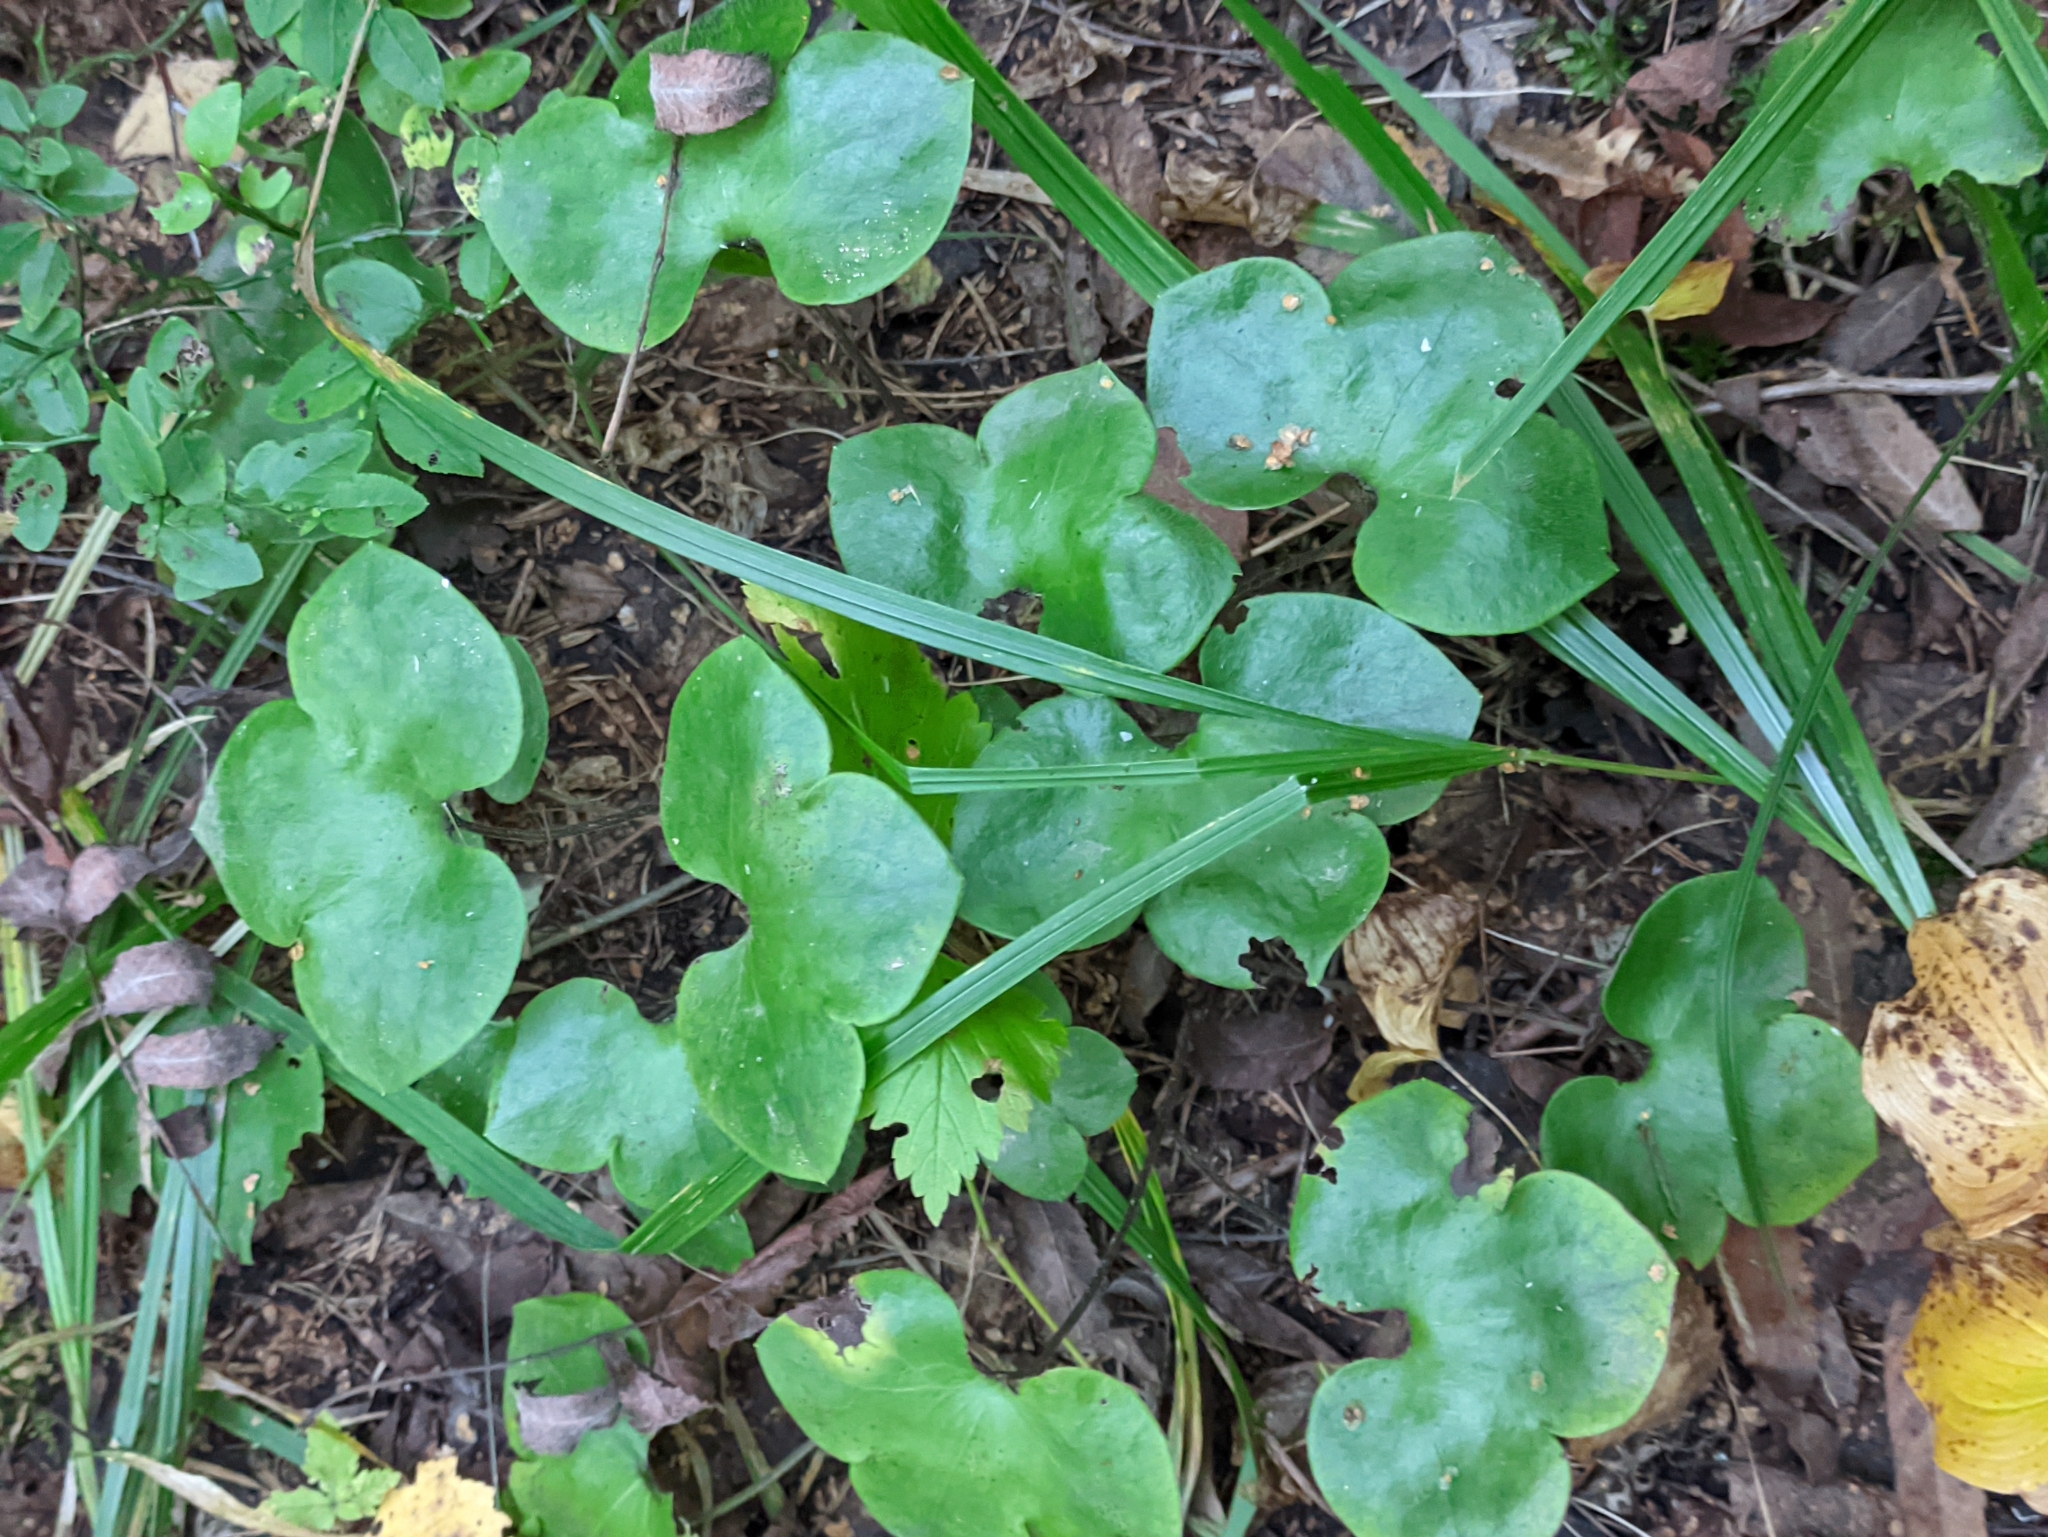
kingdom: Plantae
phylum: Tracheophyta
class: Magnoliopsida
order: Ranunculales
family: Ranunculaceae
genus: Hepatica
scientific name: Hepatica nobilis
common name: Liverleaf
